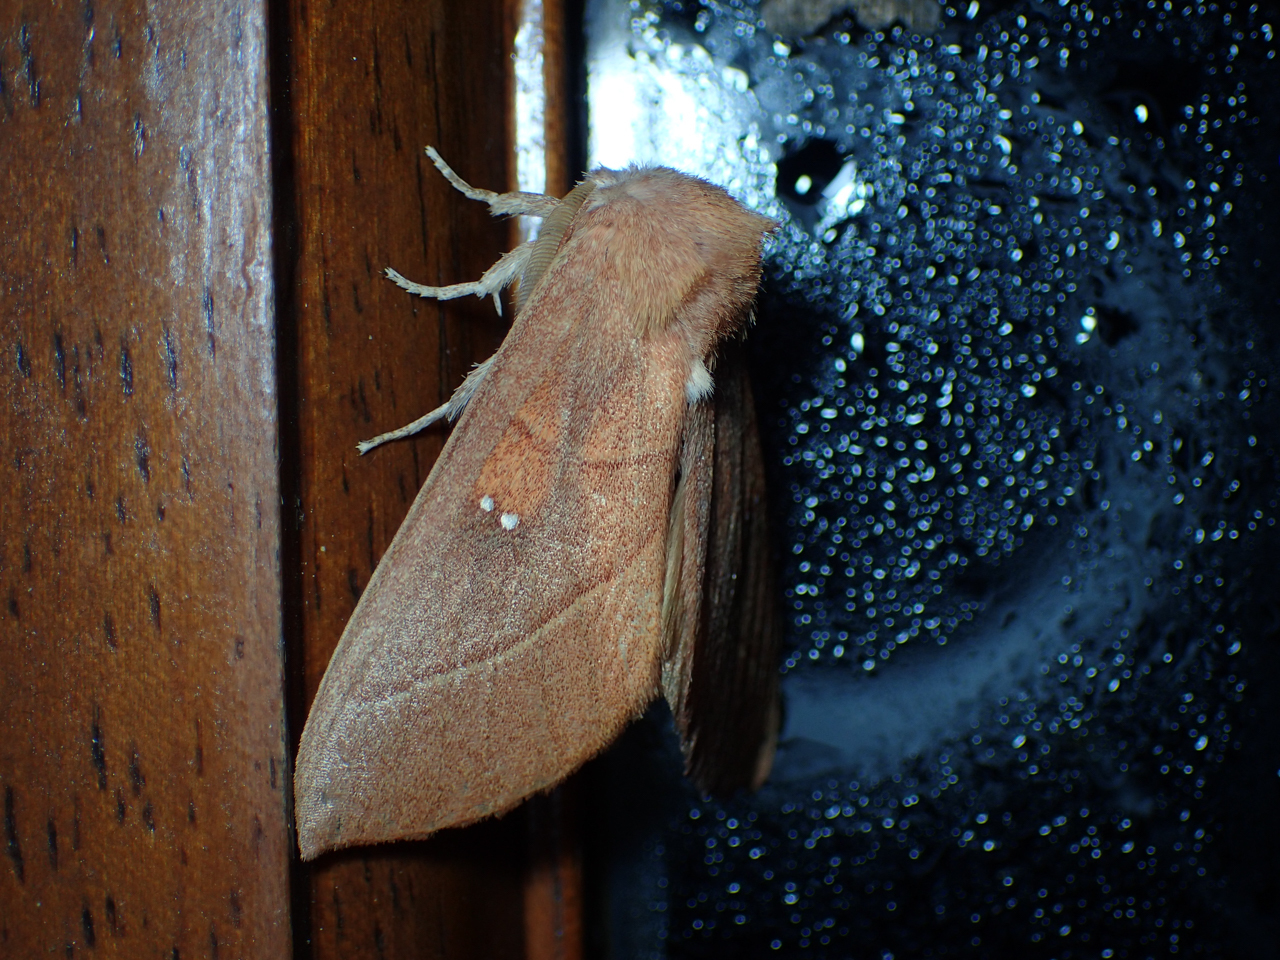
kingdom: Animalia
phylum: Arthropoda
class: Insecta
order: Lepidoptera
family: Notodontidae
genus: Nadata
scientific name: Nadata gibbosa
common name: White-dotted prominent
